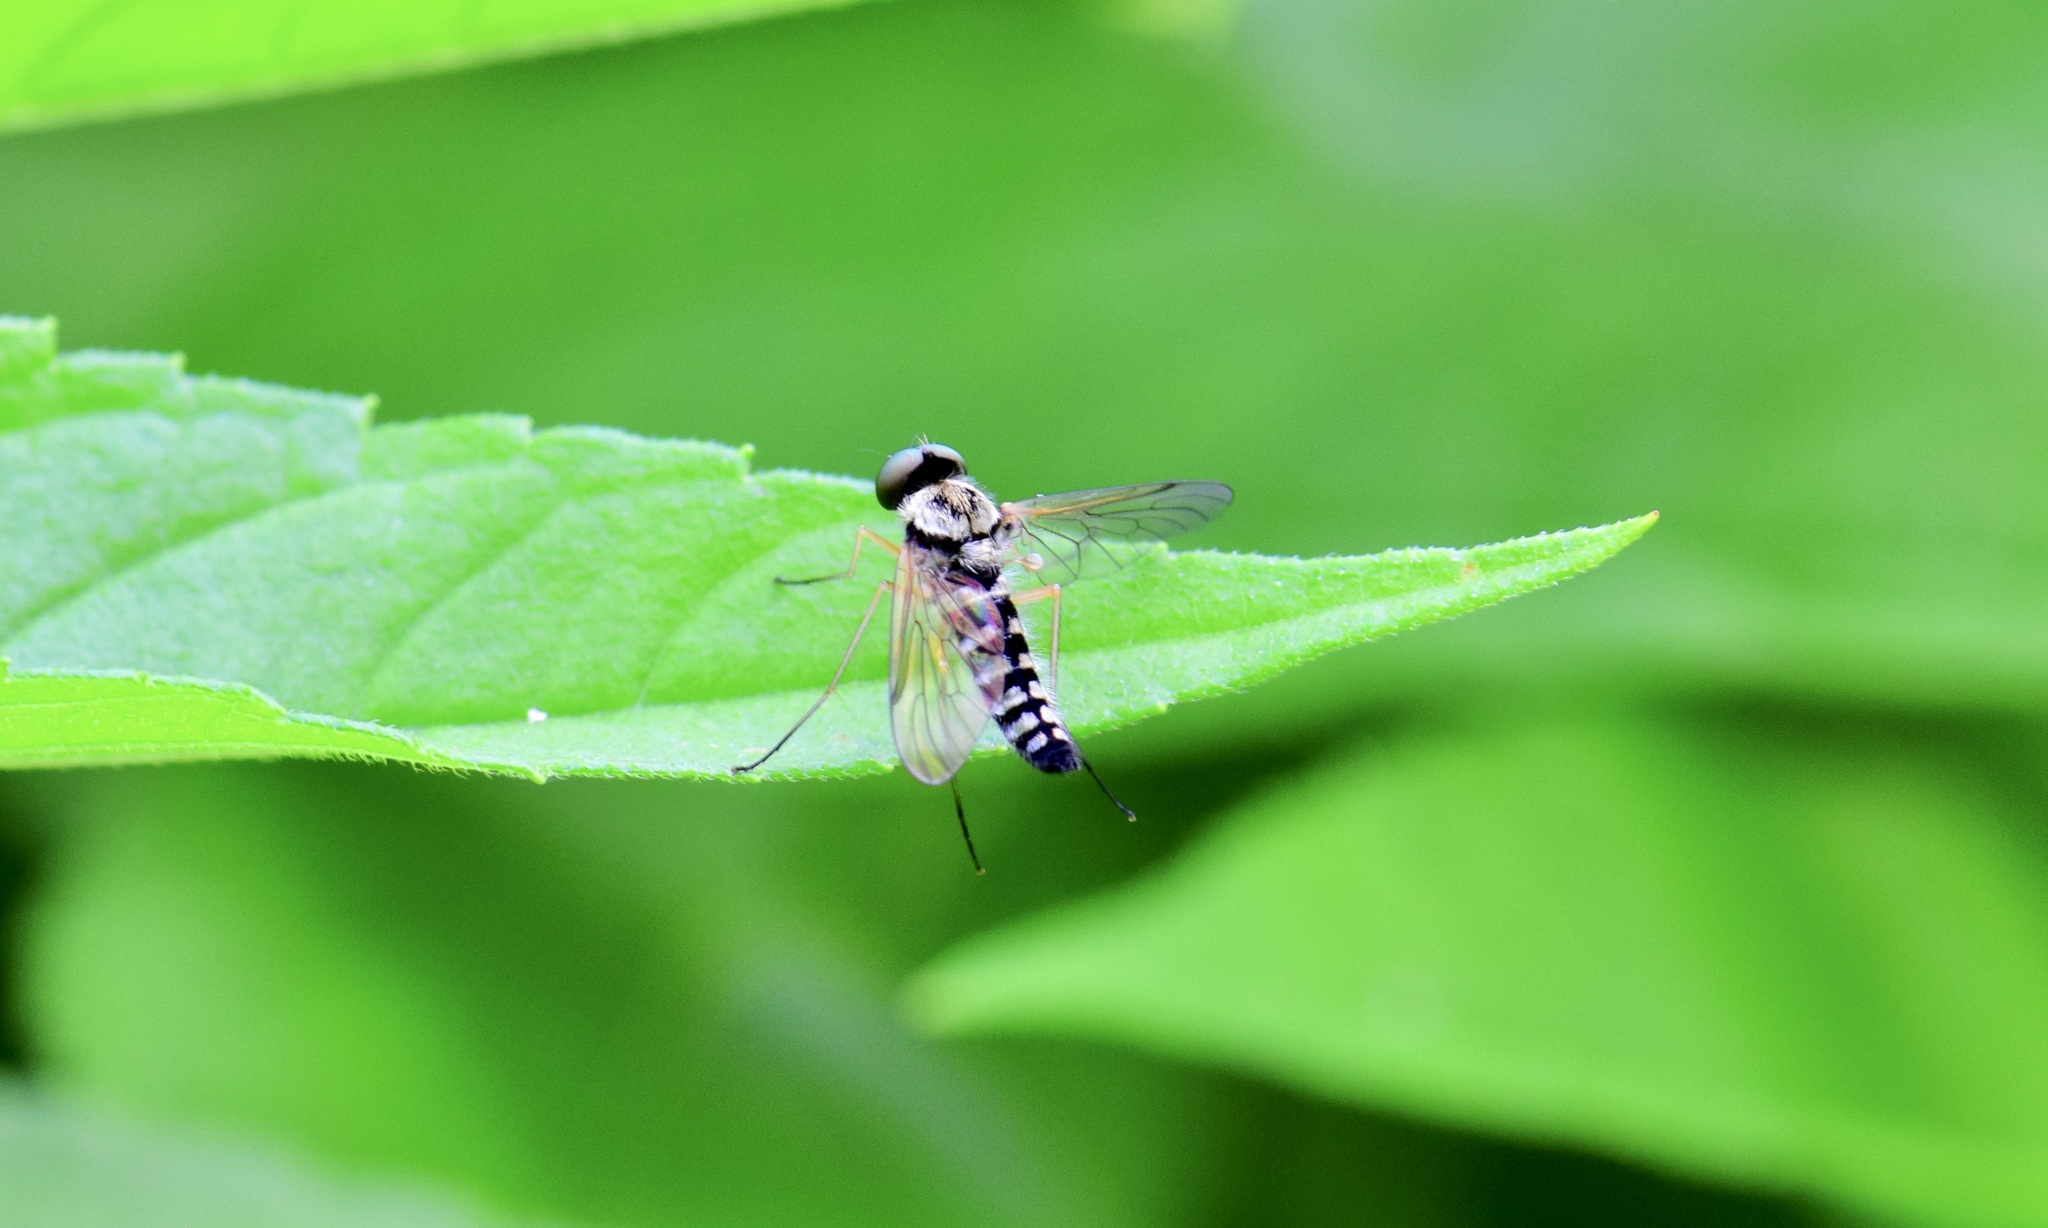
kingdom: Animalia
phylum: Arthropoda
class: Insecta
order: Diptera
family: Rhagionidae
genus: Chrysopilus
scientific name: Chrysopilus ornatus
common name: Ornate snipe fly
